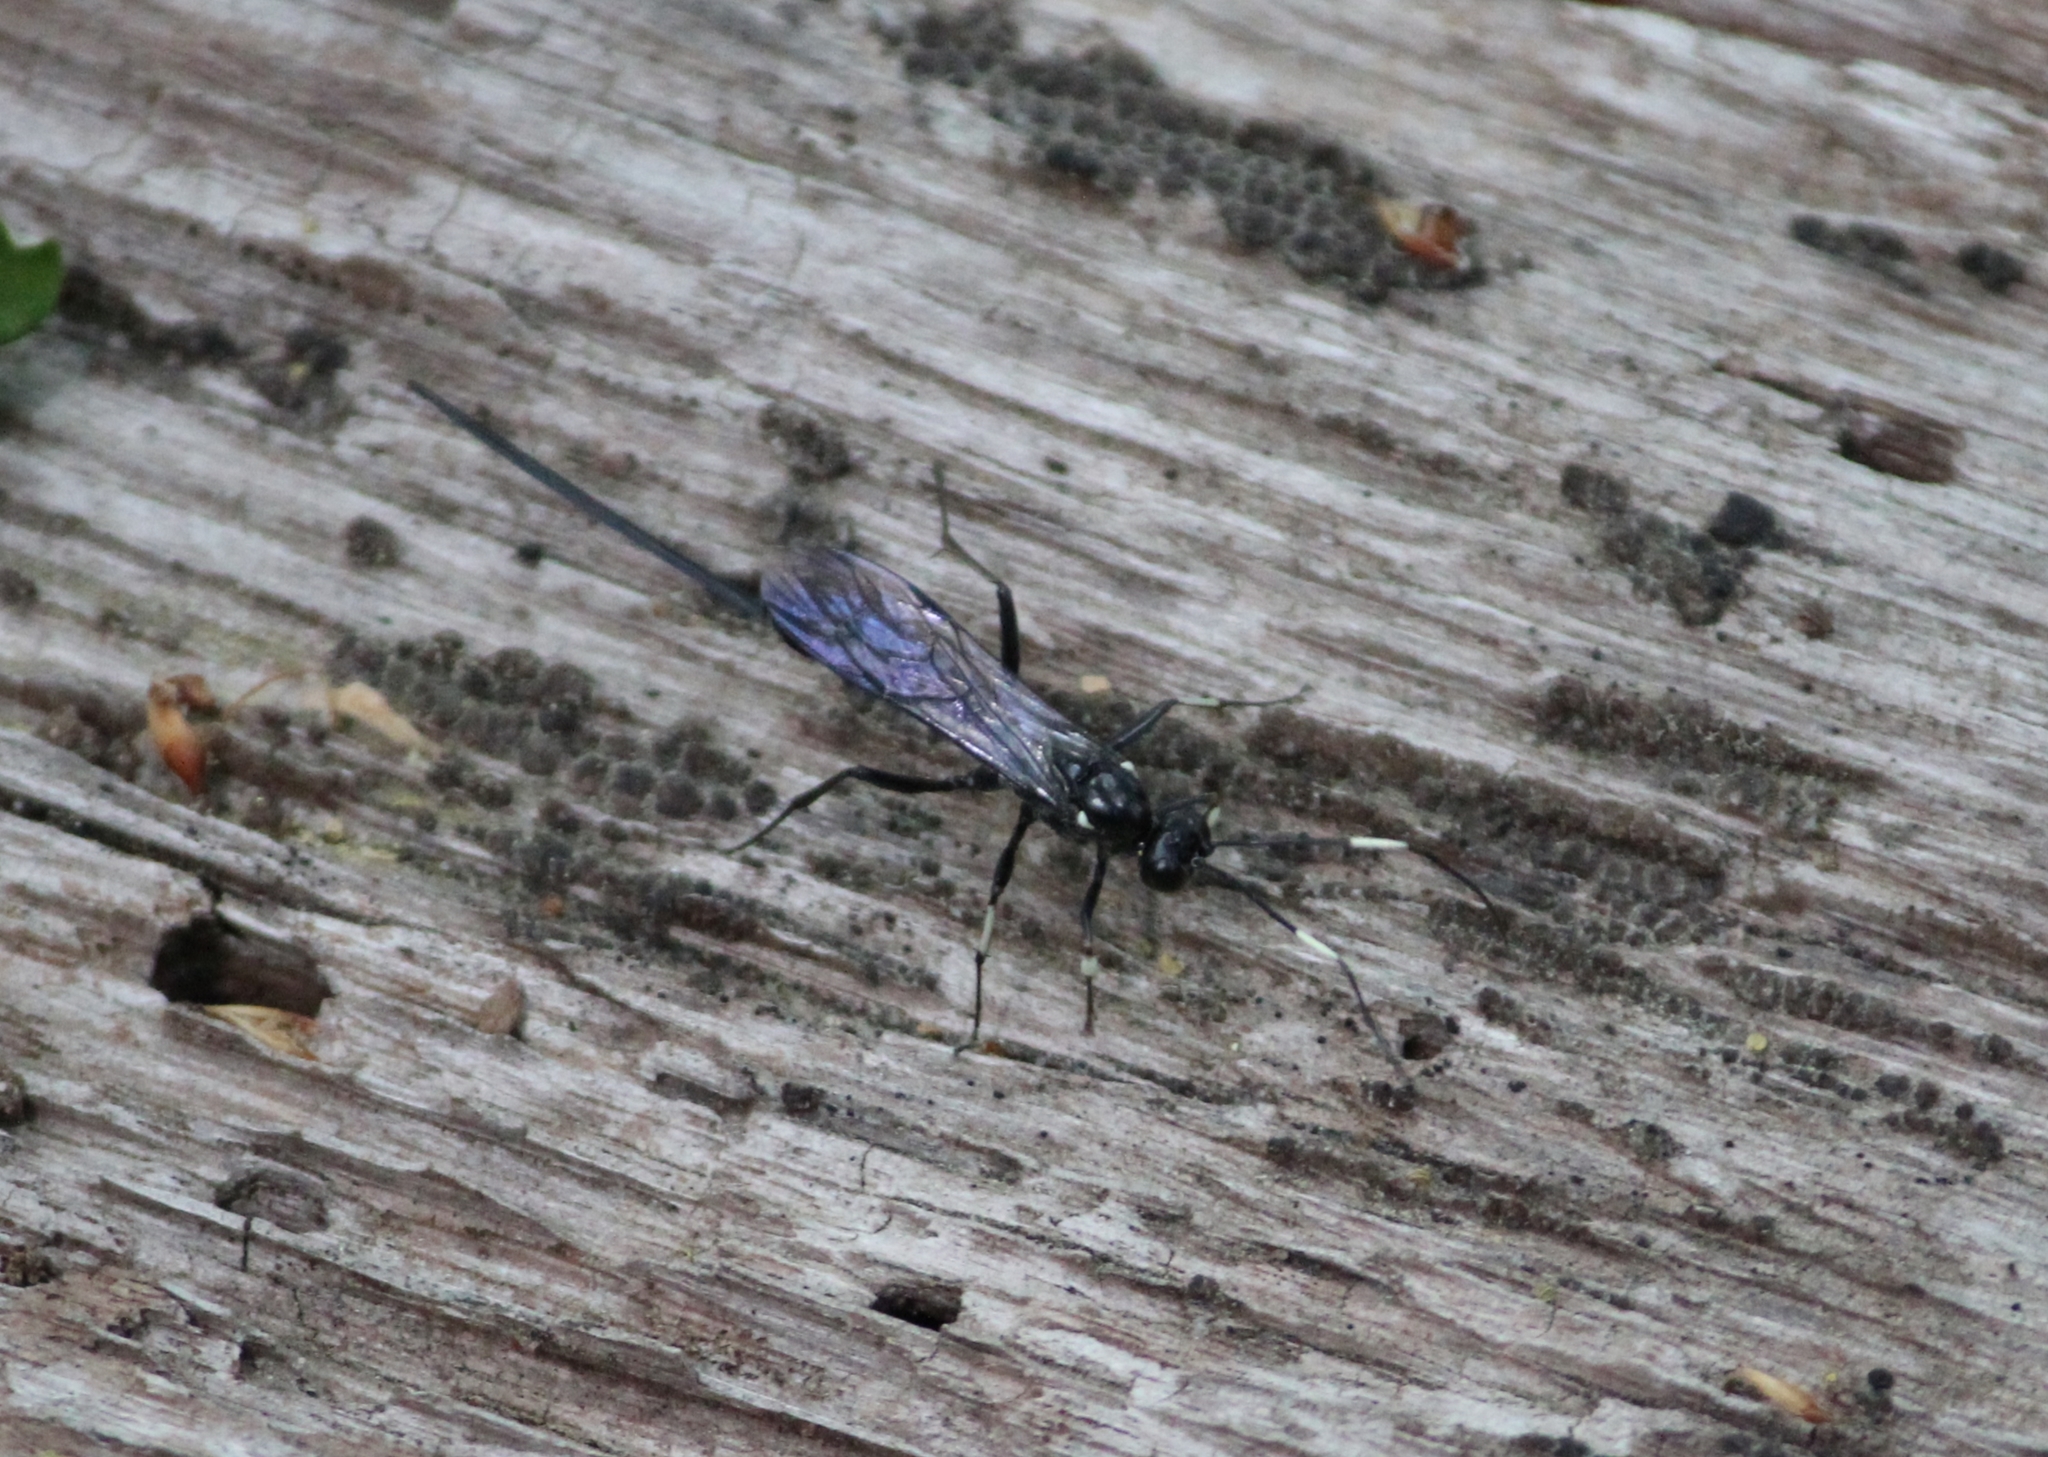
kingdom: Animalia
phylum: Arthropoda
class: Insecta
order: Hymenoptera
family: Ichneumonidae
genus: Echthrus
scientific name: Echthrus niger
